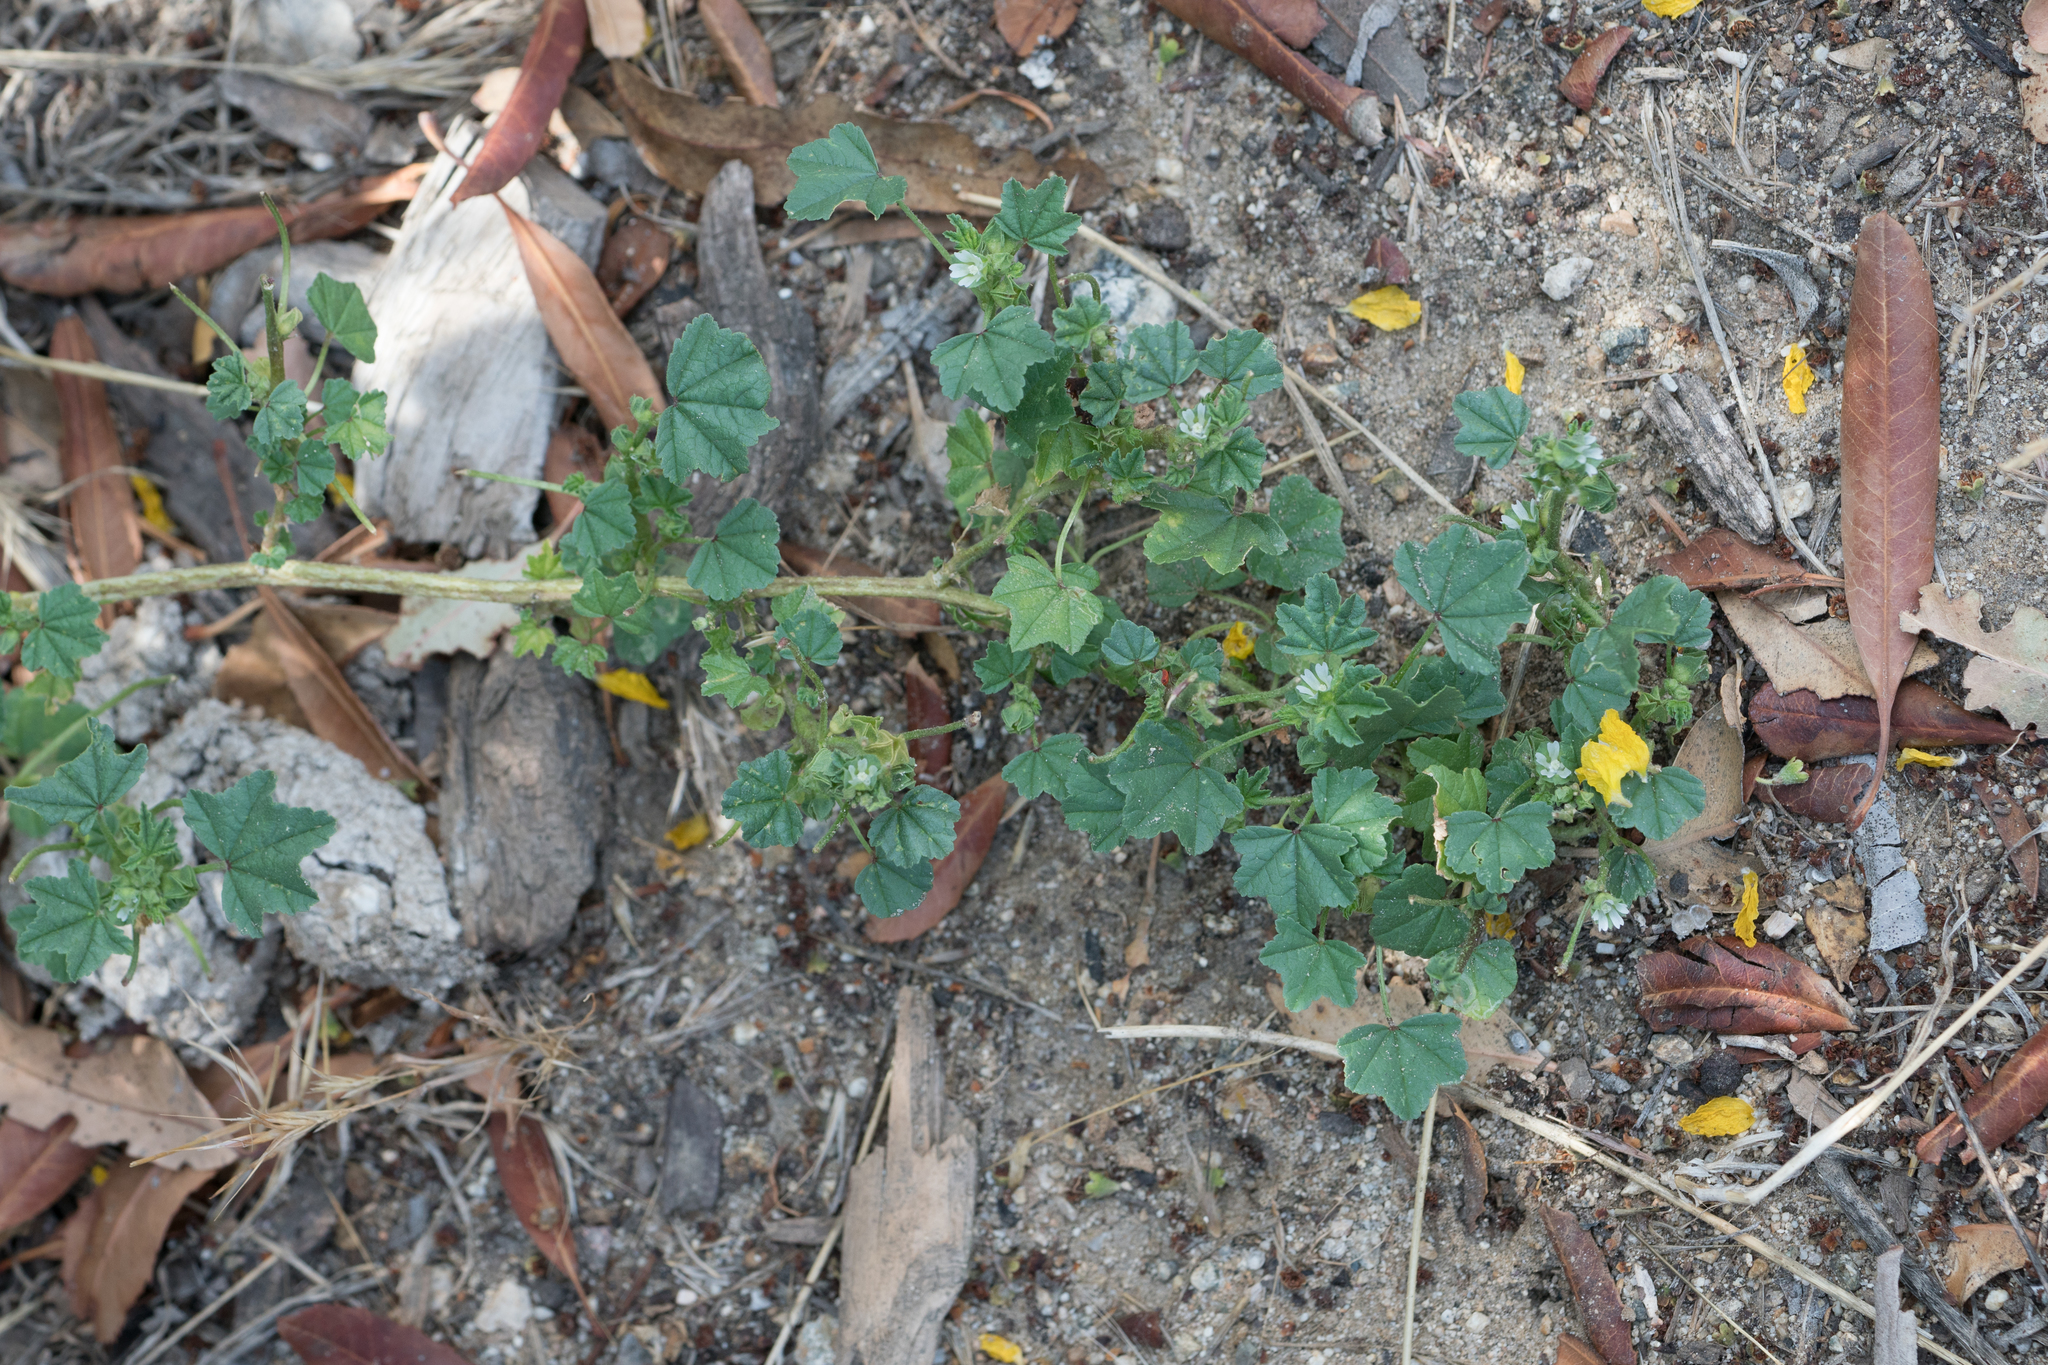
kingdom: Plantae
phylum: Tracheophyta
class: Magnoliopsida
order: Malvales
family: Malvaceae
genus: Malva
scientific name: Malva parviflora
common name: Least mallow
